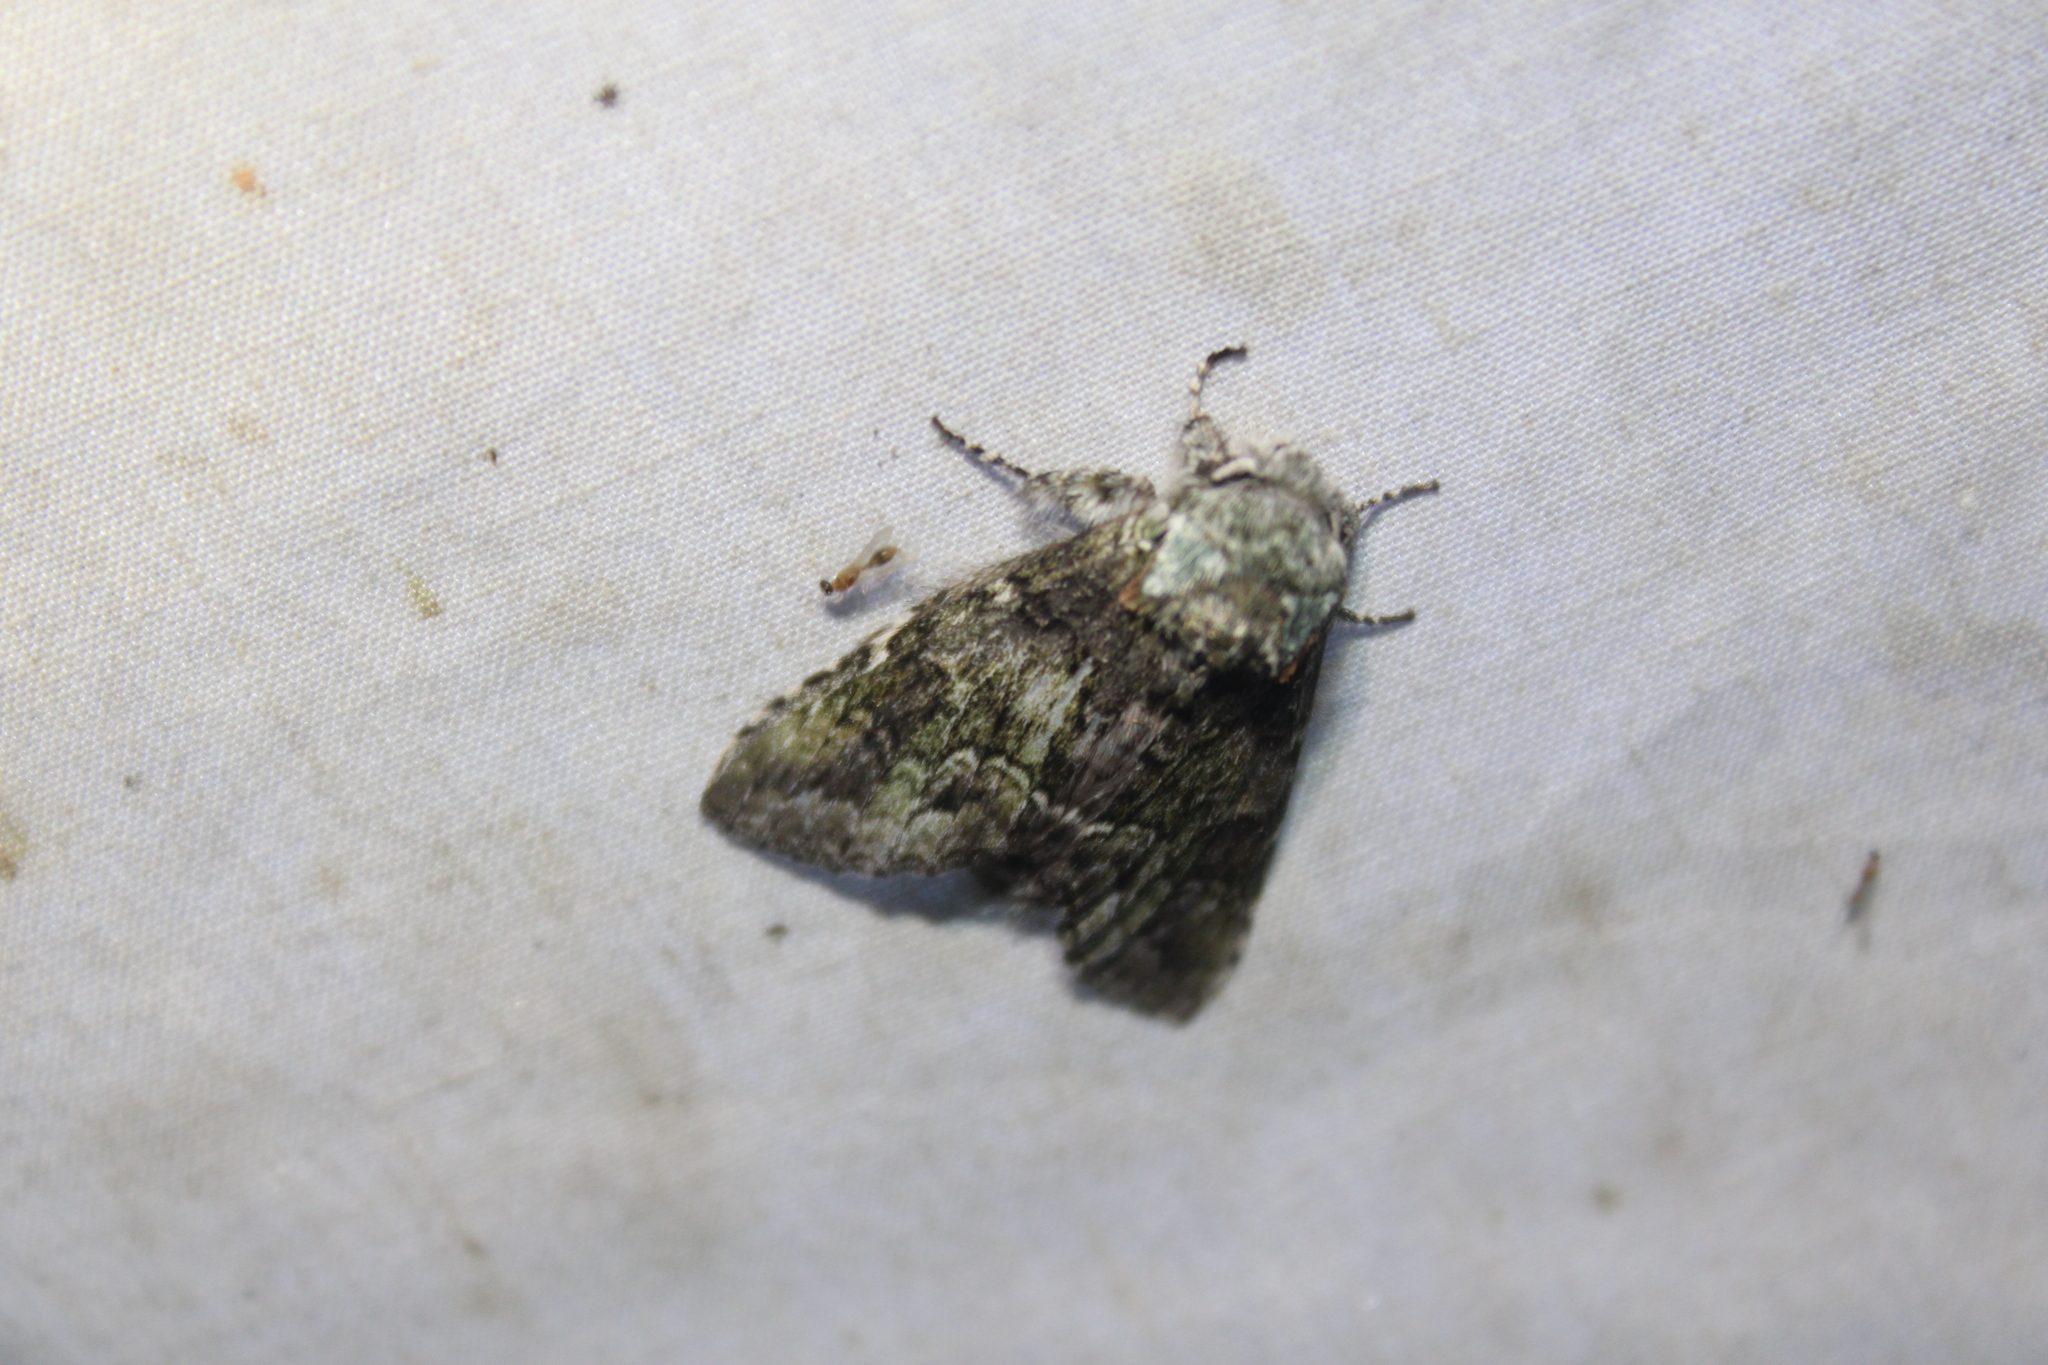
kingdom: Animalia
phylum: Arthropoda
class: Insecta
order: Lepidoptera
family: Notodontidae
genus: Macrurocampa
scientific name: Macrurocampa marthesia
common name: Mottled prominent
